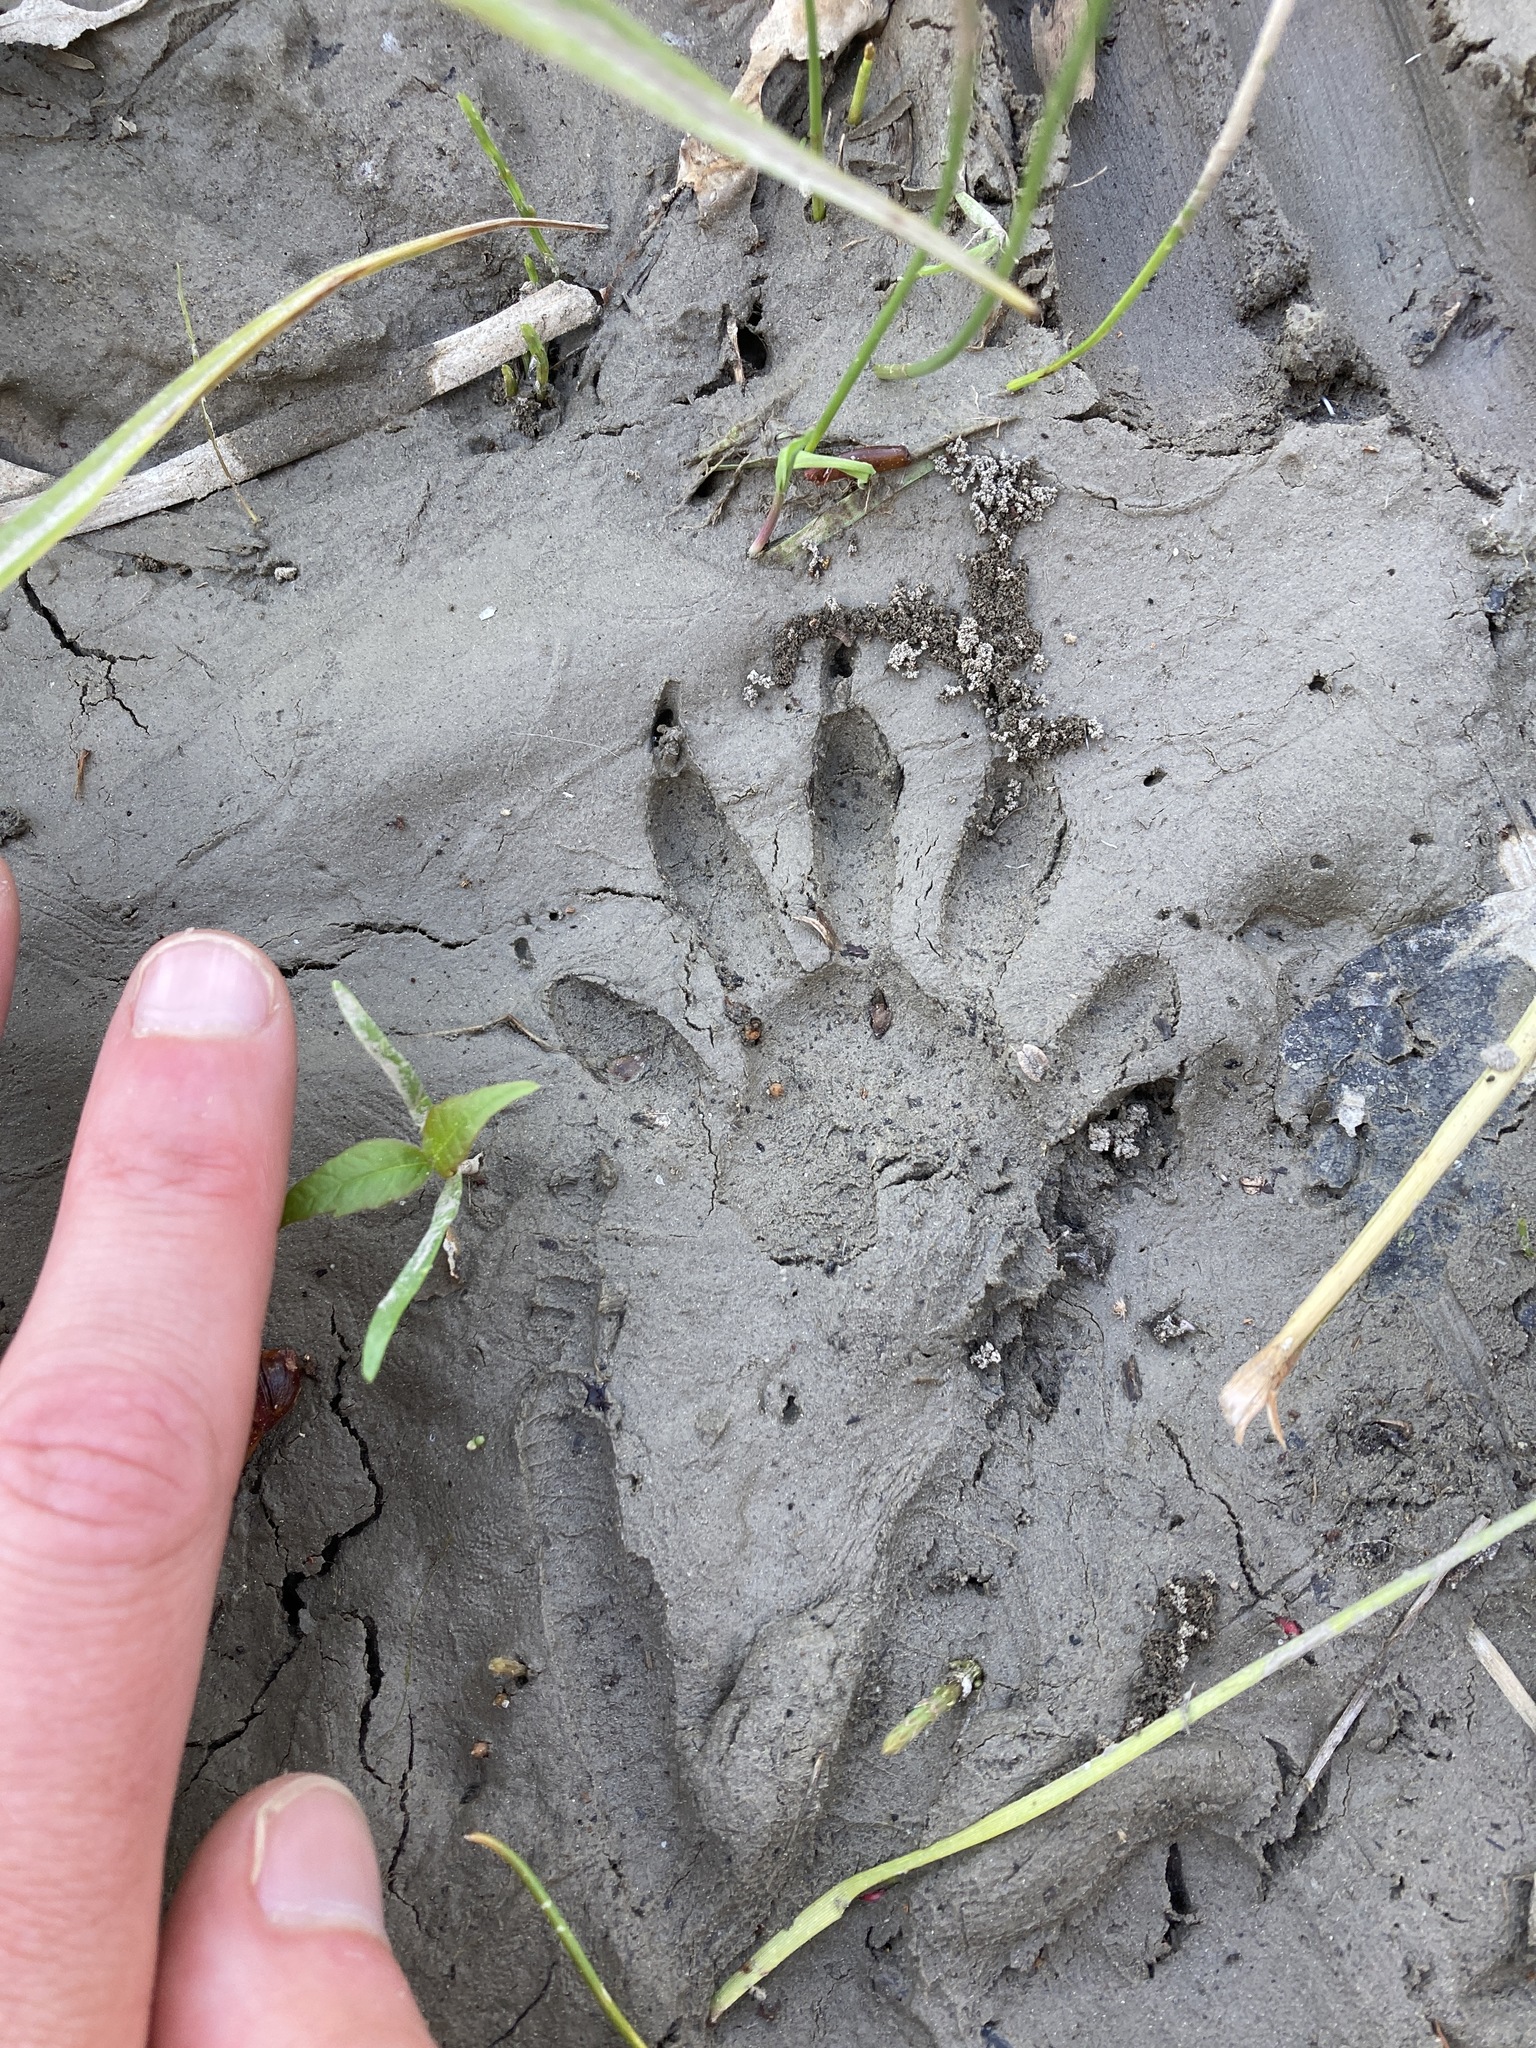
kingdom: Animalia
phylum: Chordata
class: Mammalia
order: Carnivora
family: Procyonidae
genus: Procyon
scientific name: Procyon lotor
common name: Raccoon
